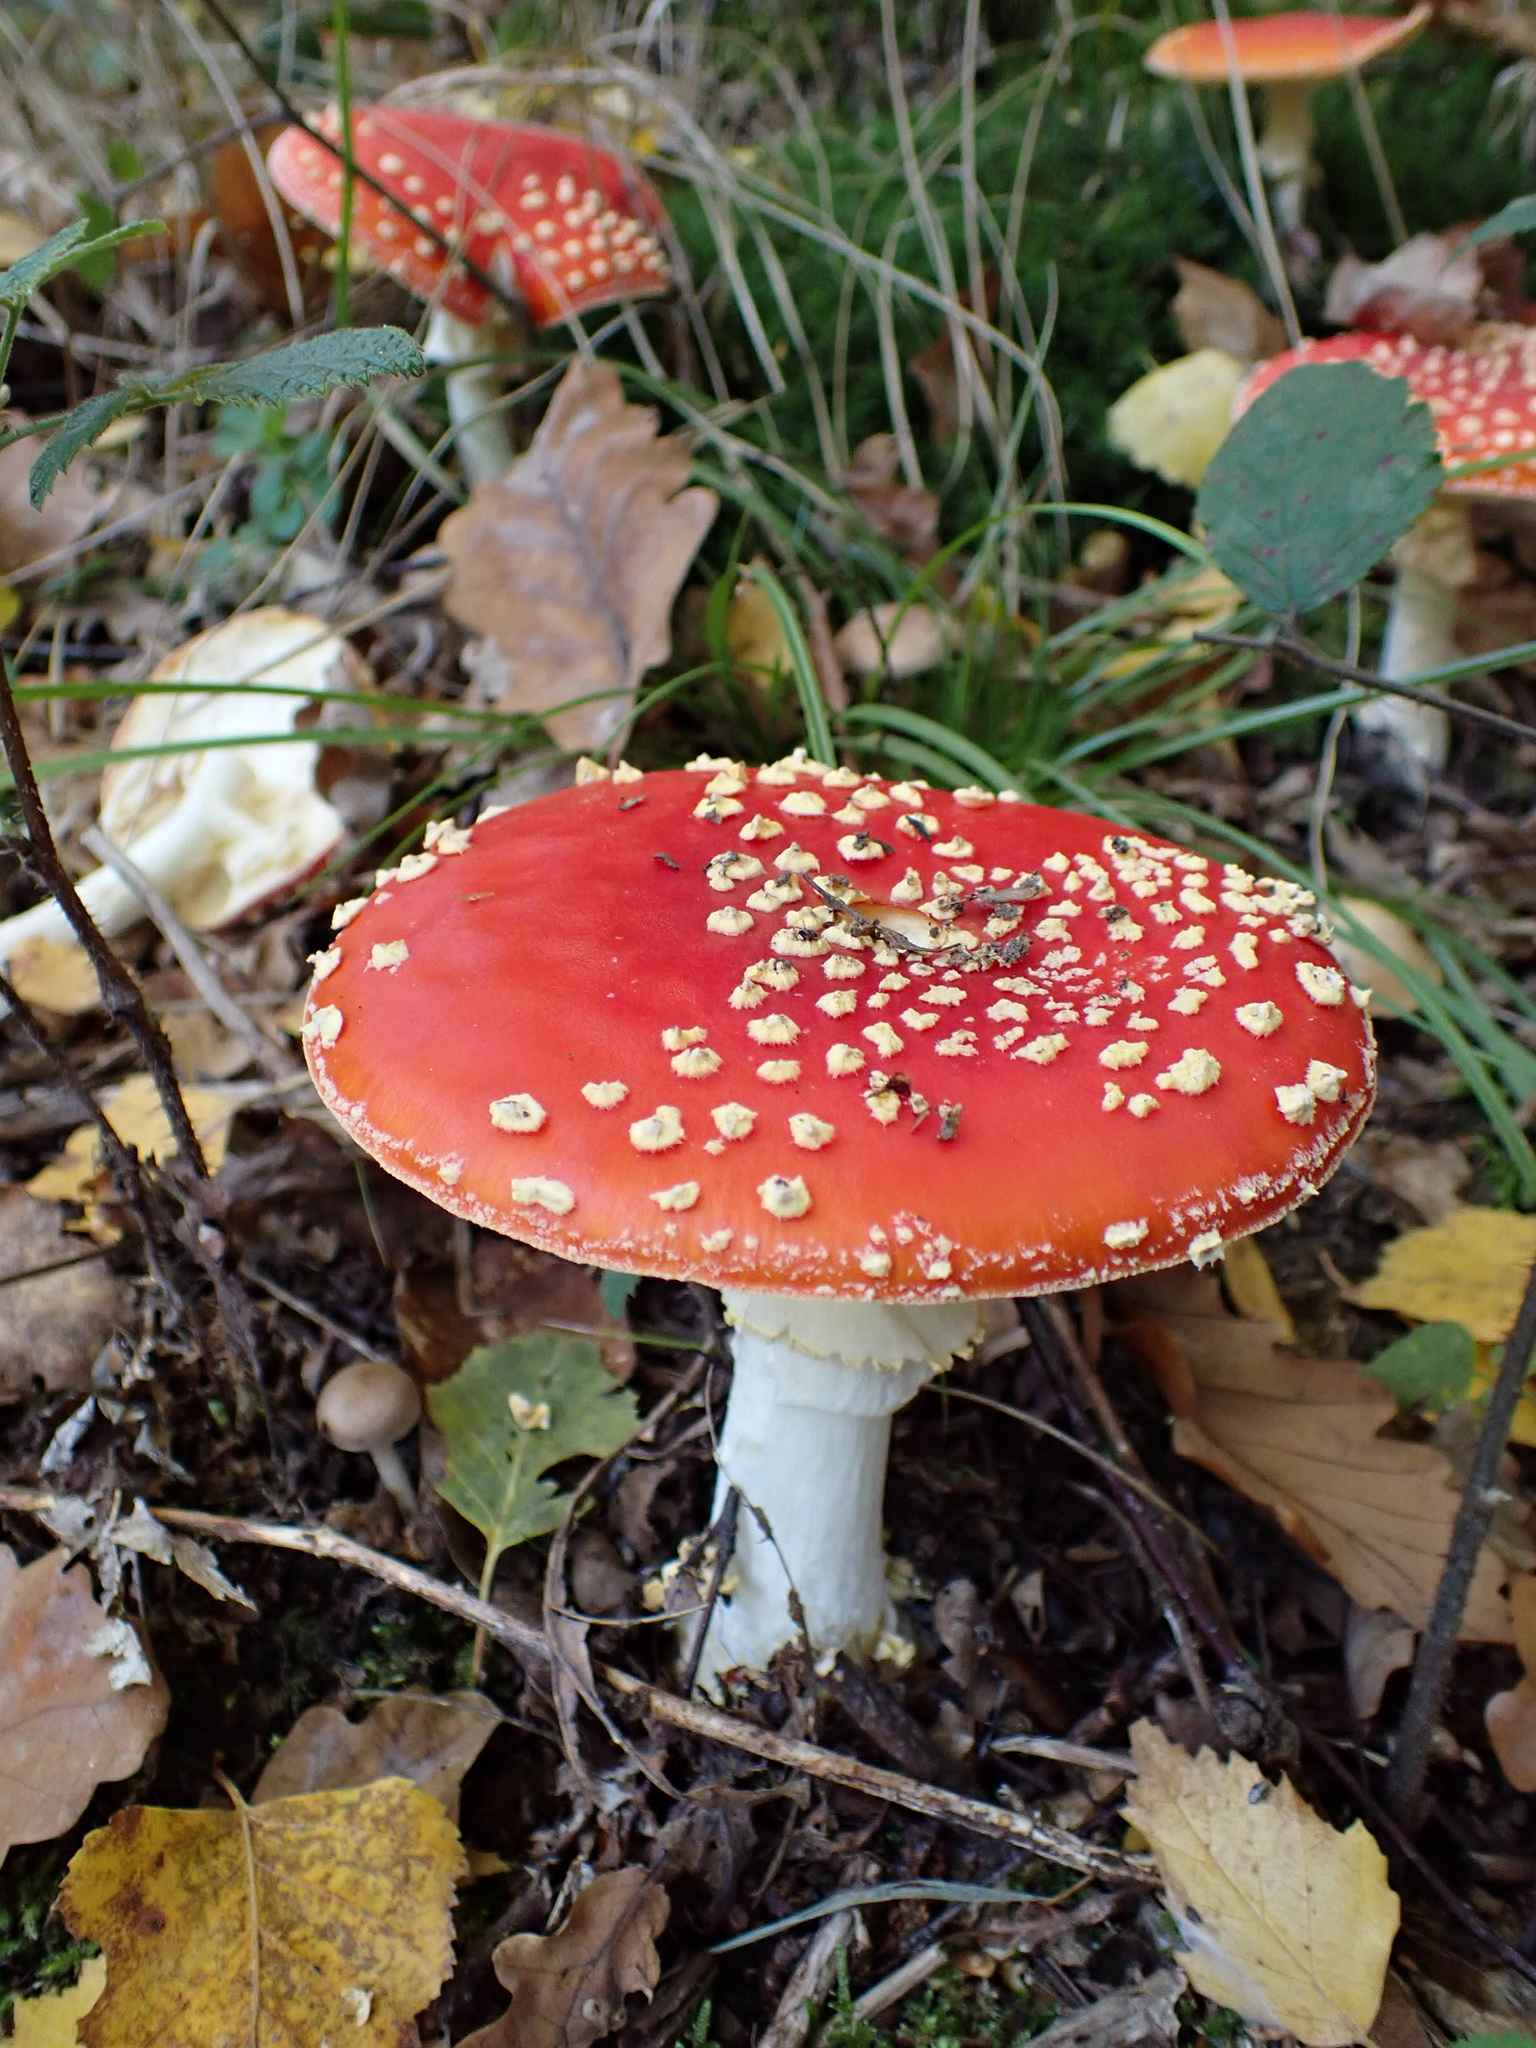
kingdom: Fungi
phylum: Basidiomycota
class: Agaricomycetes
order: Agaricales
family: Amanitaceae
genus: Amanita
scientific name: Amanita muscaria
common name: Fly agaric
